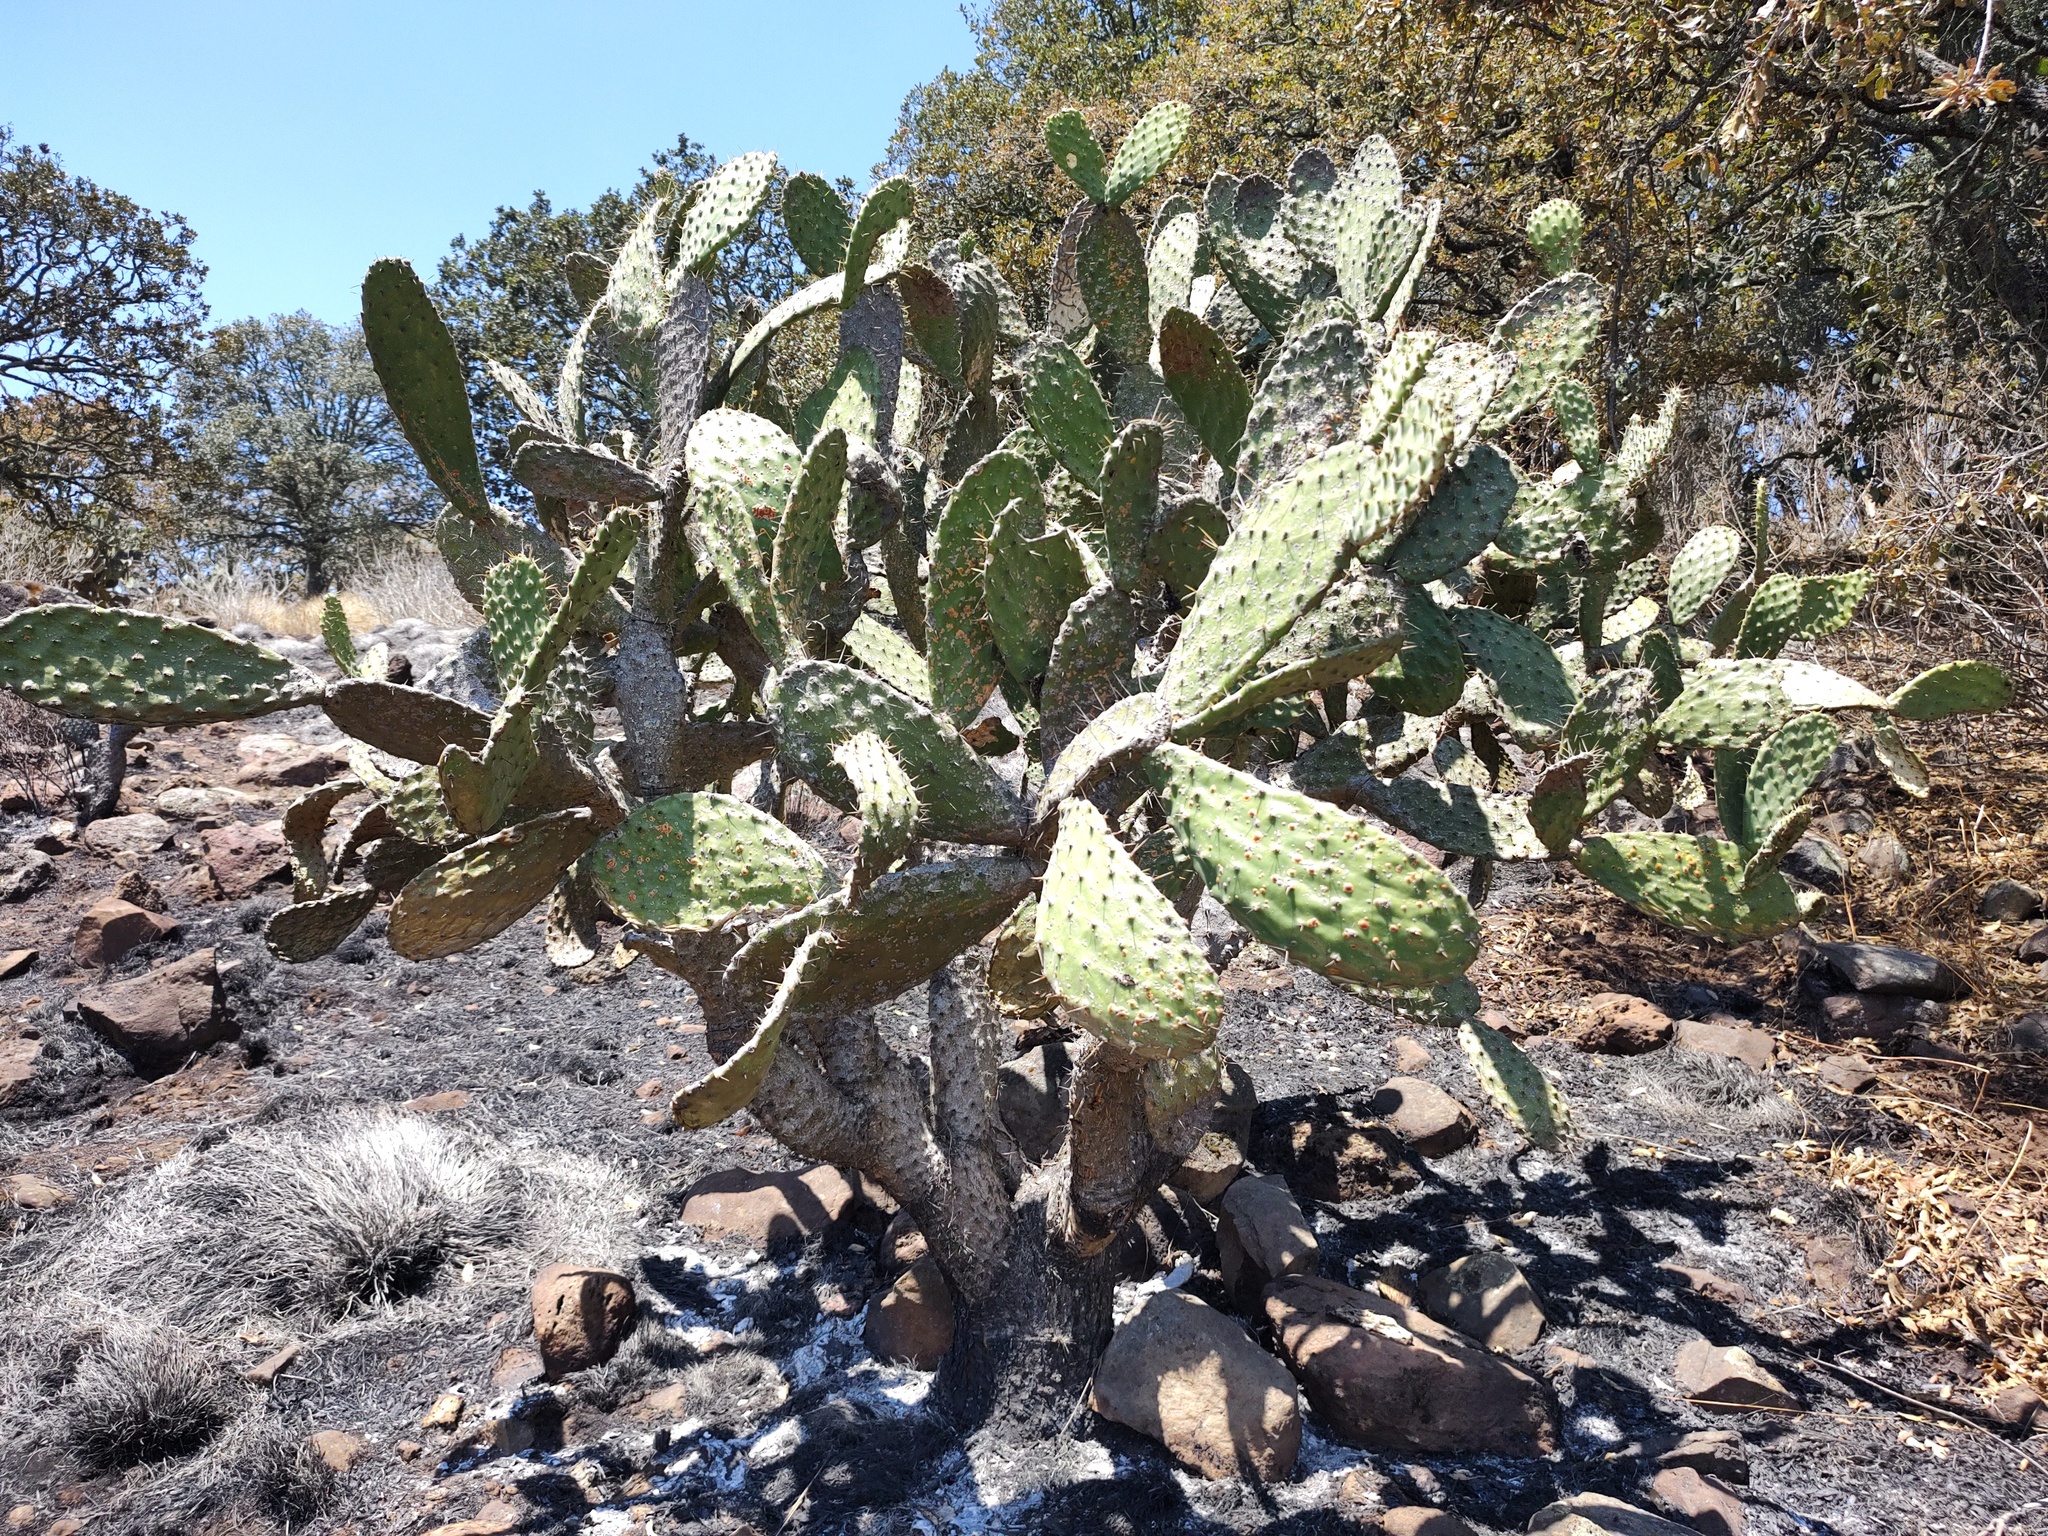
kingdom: Plantae
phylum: Tracheophyta
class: Magnoliopsida
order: Caryophyllales
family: Cactaceae
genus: Opuntia
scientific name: Opuntia tomentosa
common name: Woollyjoint pricklypear
